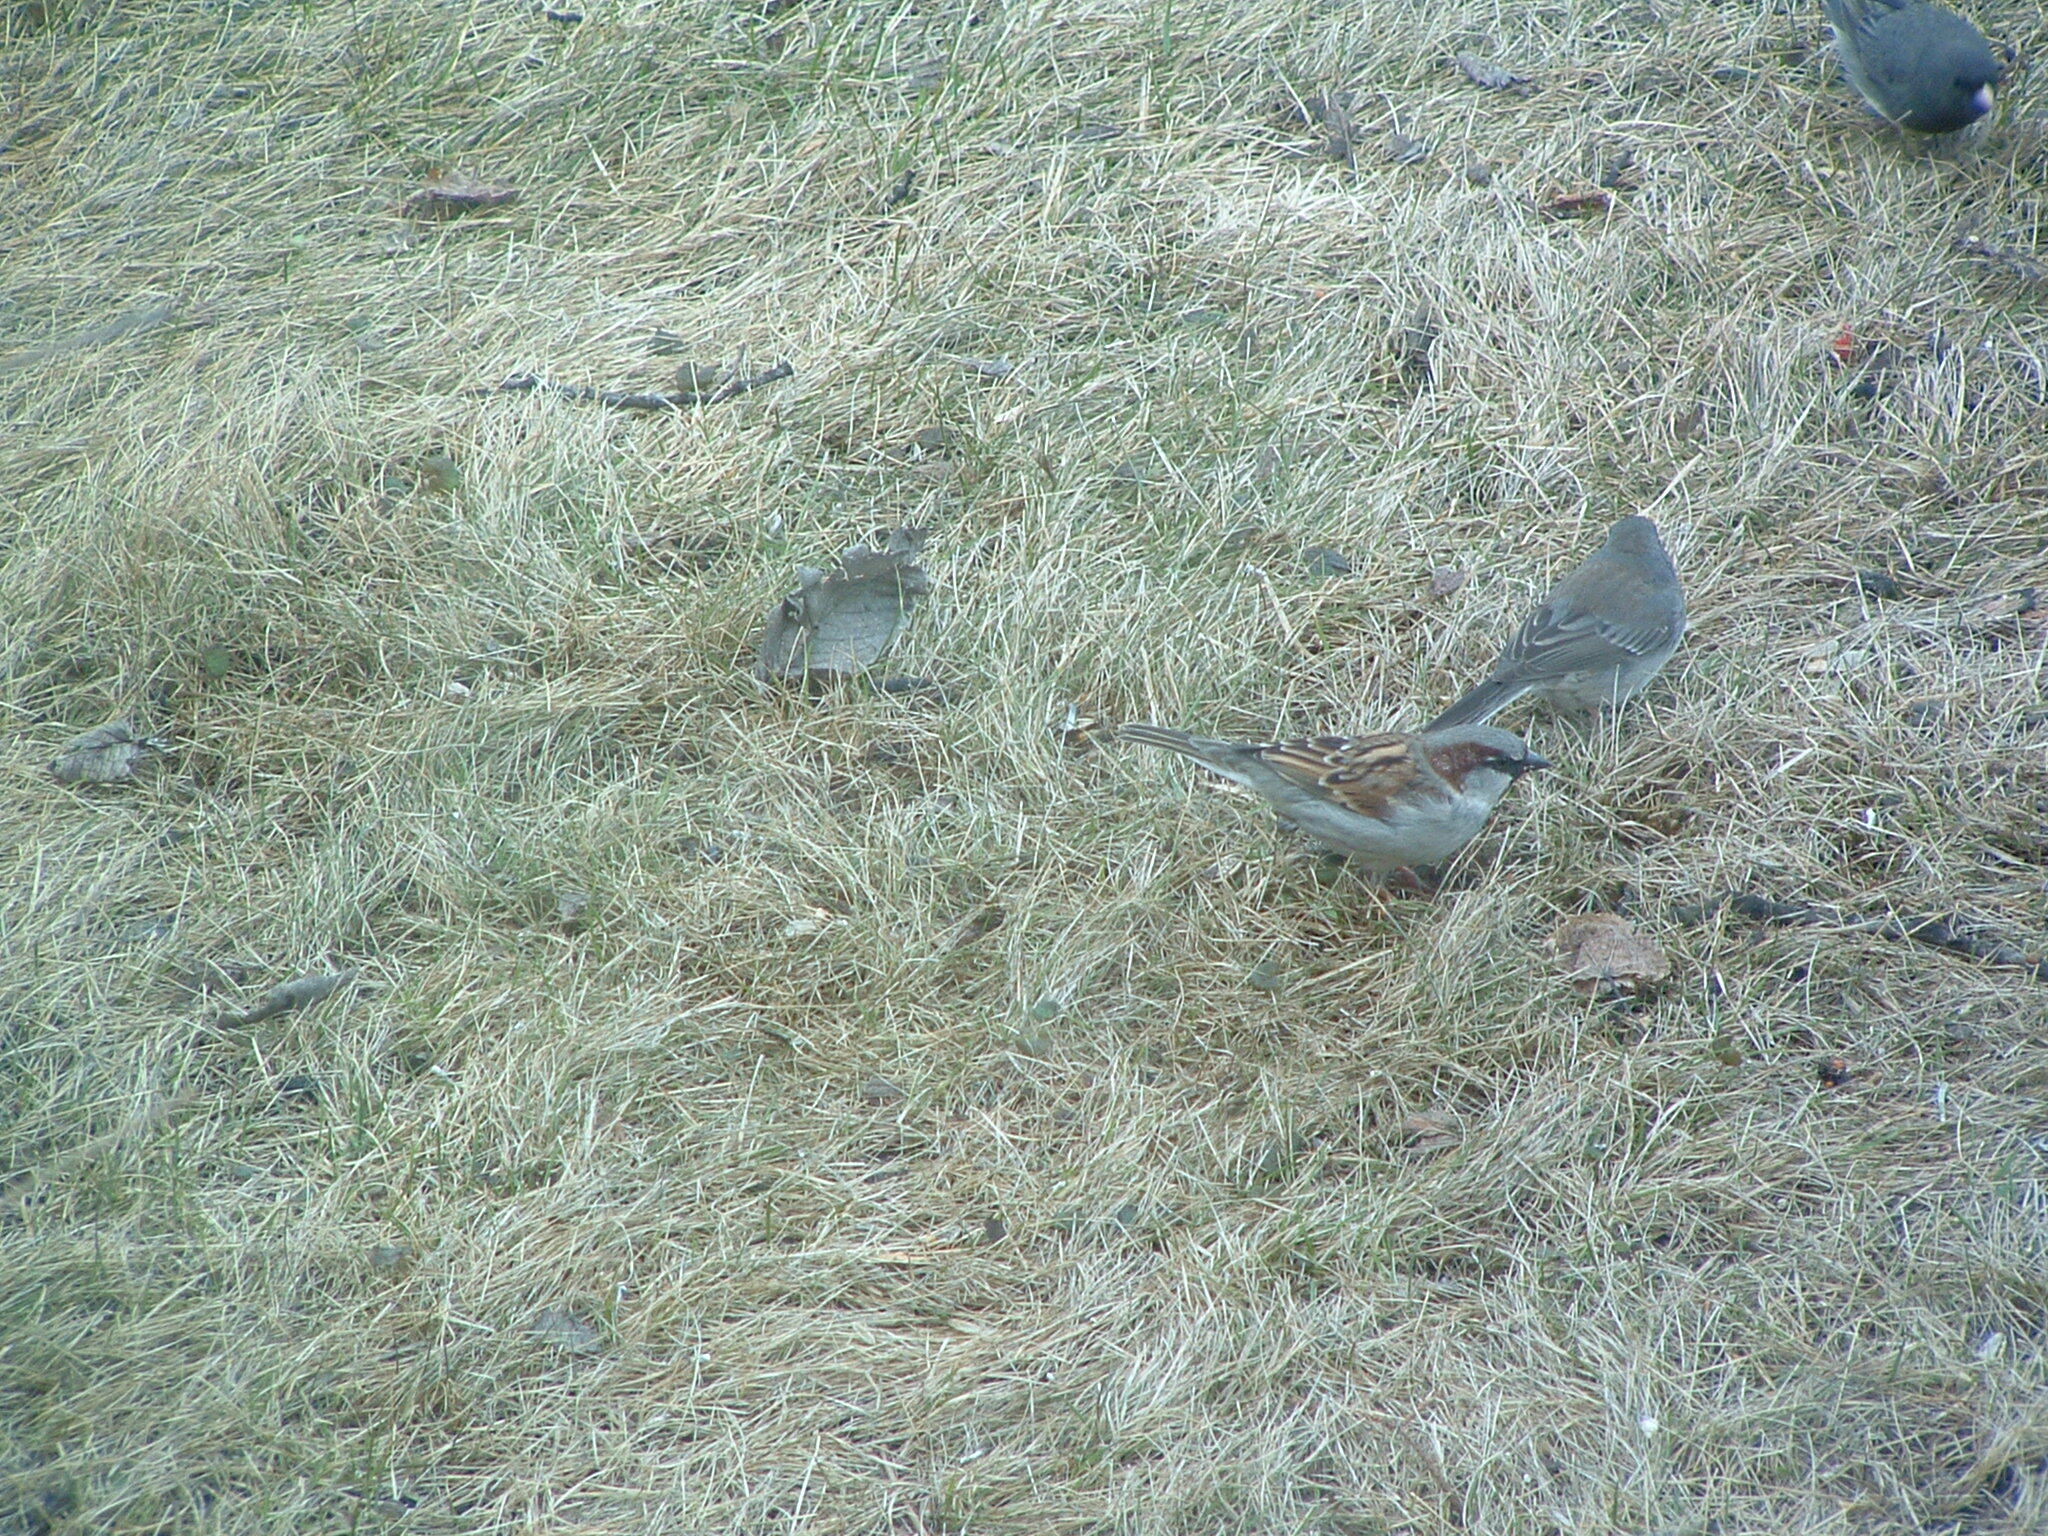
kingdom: Animalia
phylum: Chordata
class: Aves
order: Passeriformes
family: Passeridae
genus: Passer
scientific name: Passer domesticus
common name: House sparrow
